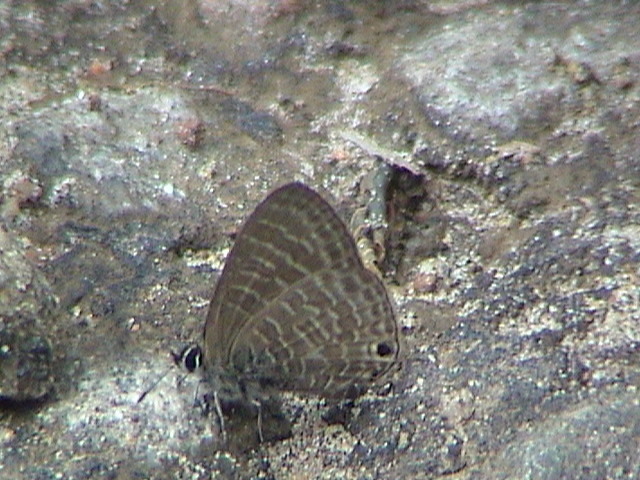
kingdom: Animalia
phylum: Arthropoda
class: Insecta
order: Lepidoptera
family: Lycaenidae
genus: Nacaduba
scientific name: Nacaduba kurava
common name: Transparent 6-line blue
